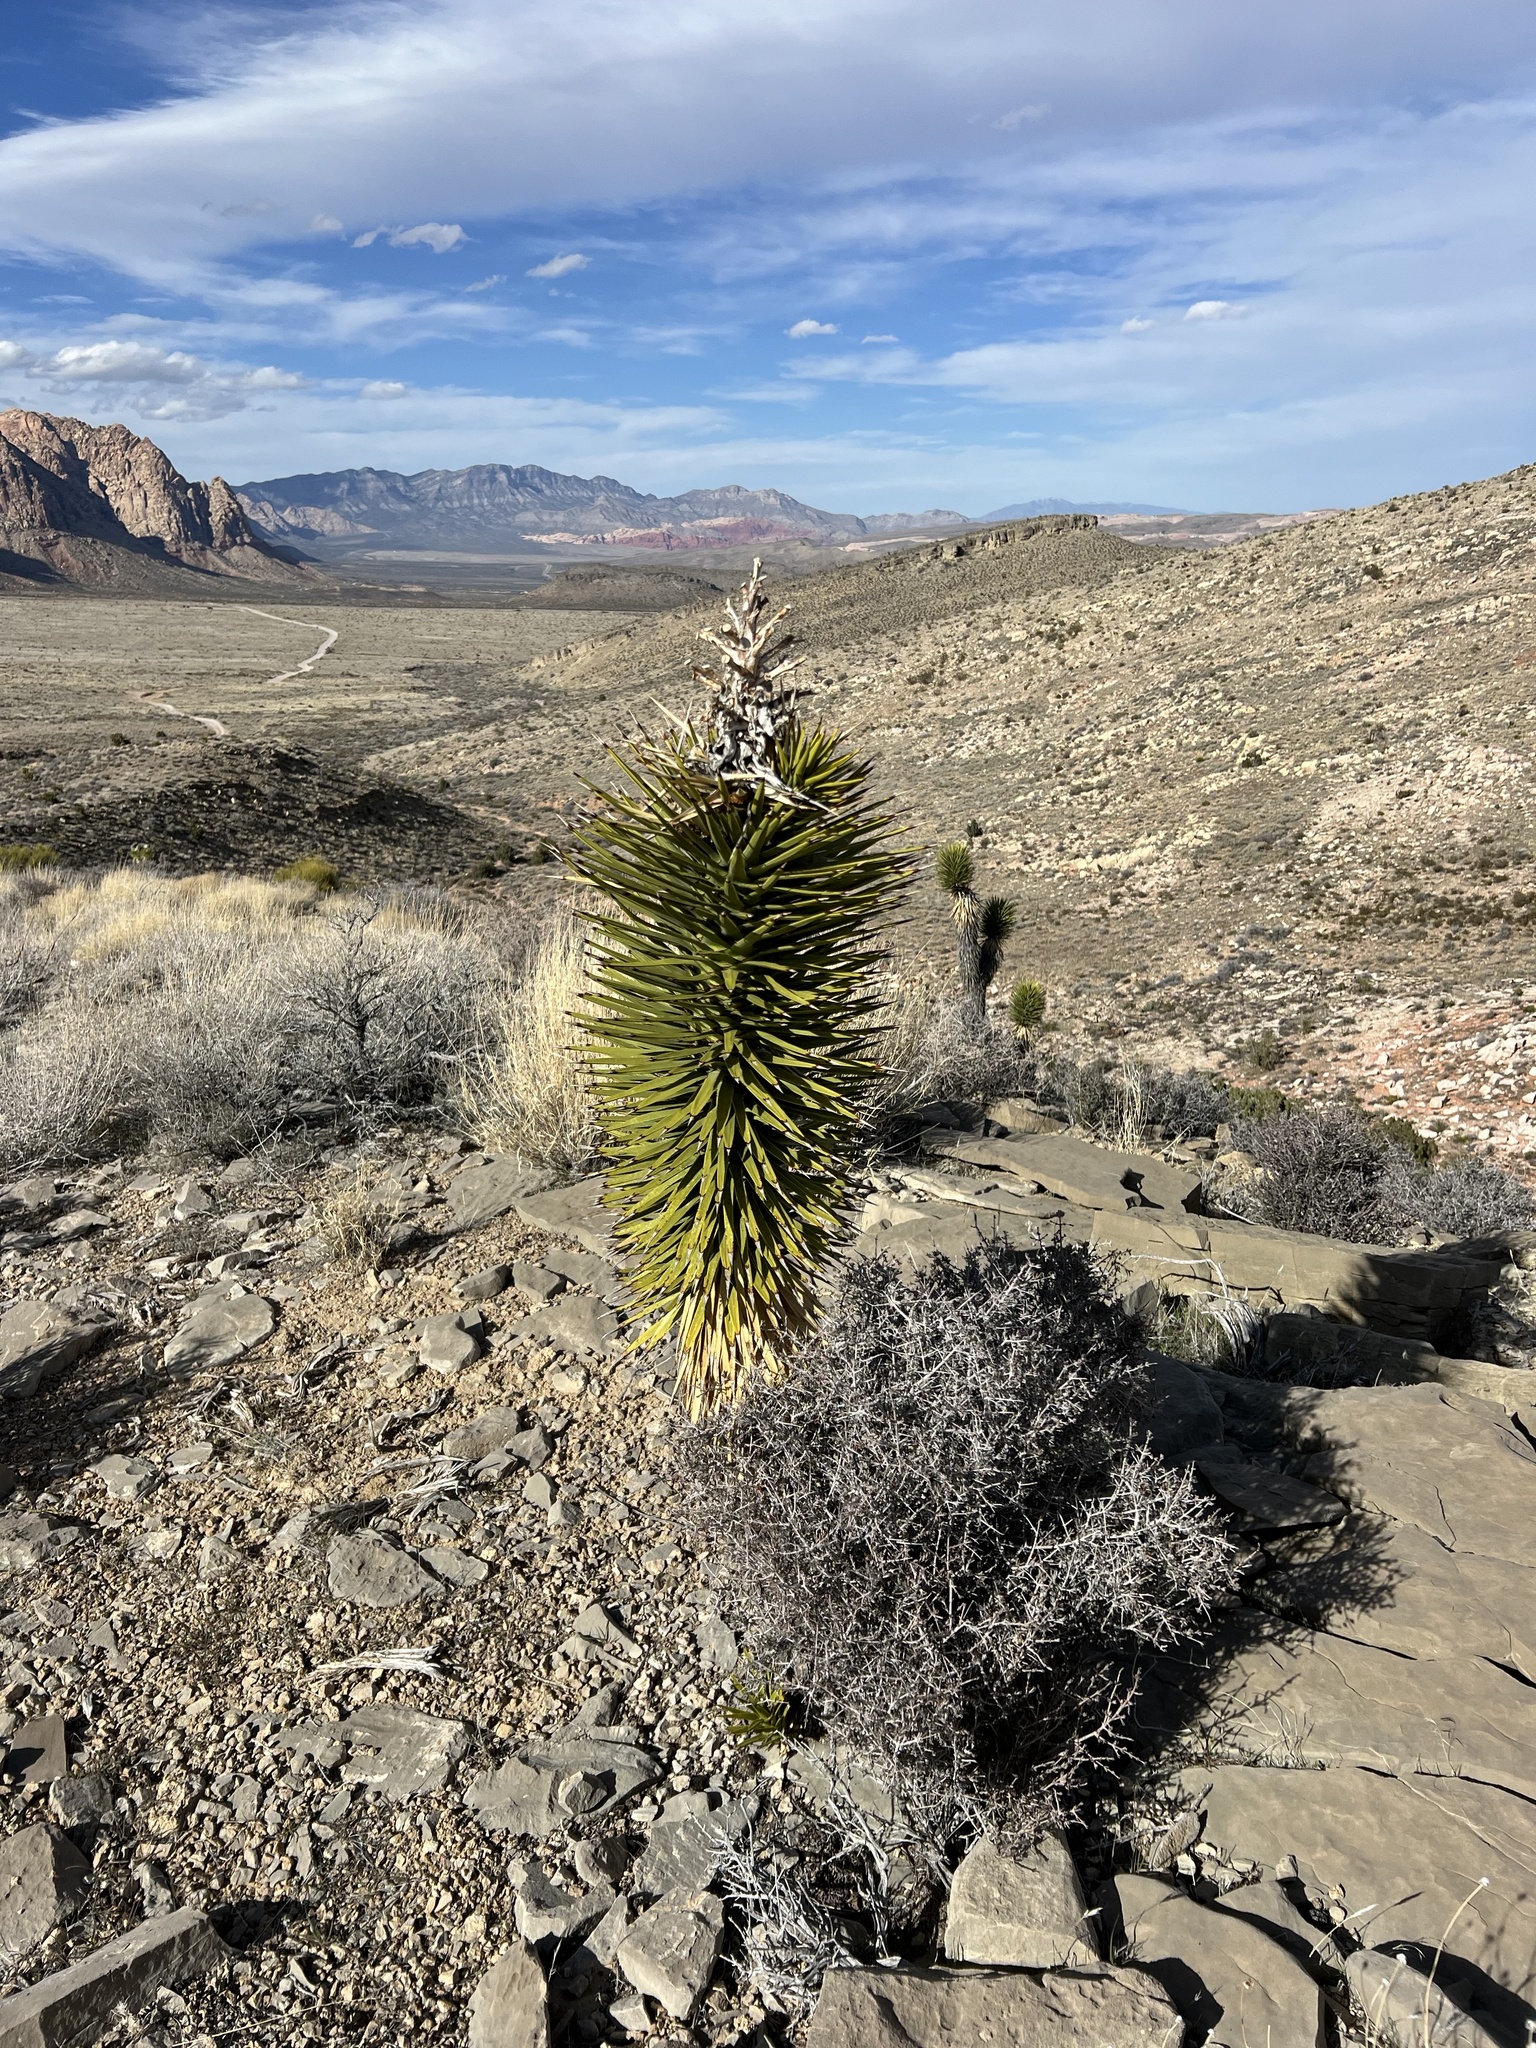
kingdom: Plantae
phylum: Tracheophyta
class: Liliopsida
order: Asparagales
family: Asparagaceae
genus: Yucca
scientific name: Yucca brevifolia
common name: Joshua tree
